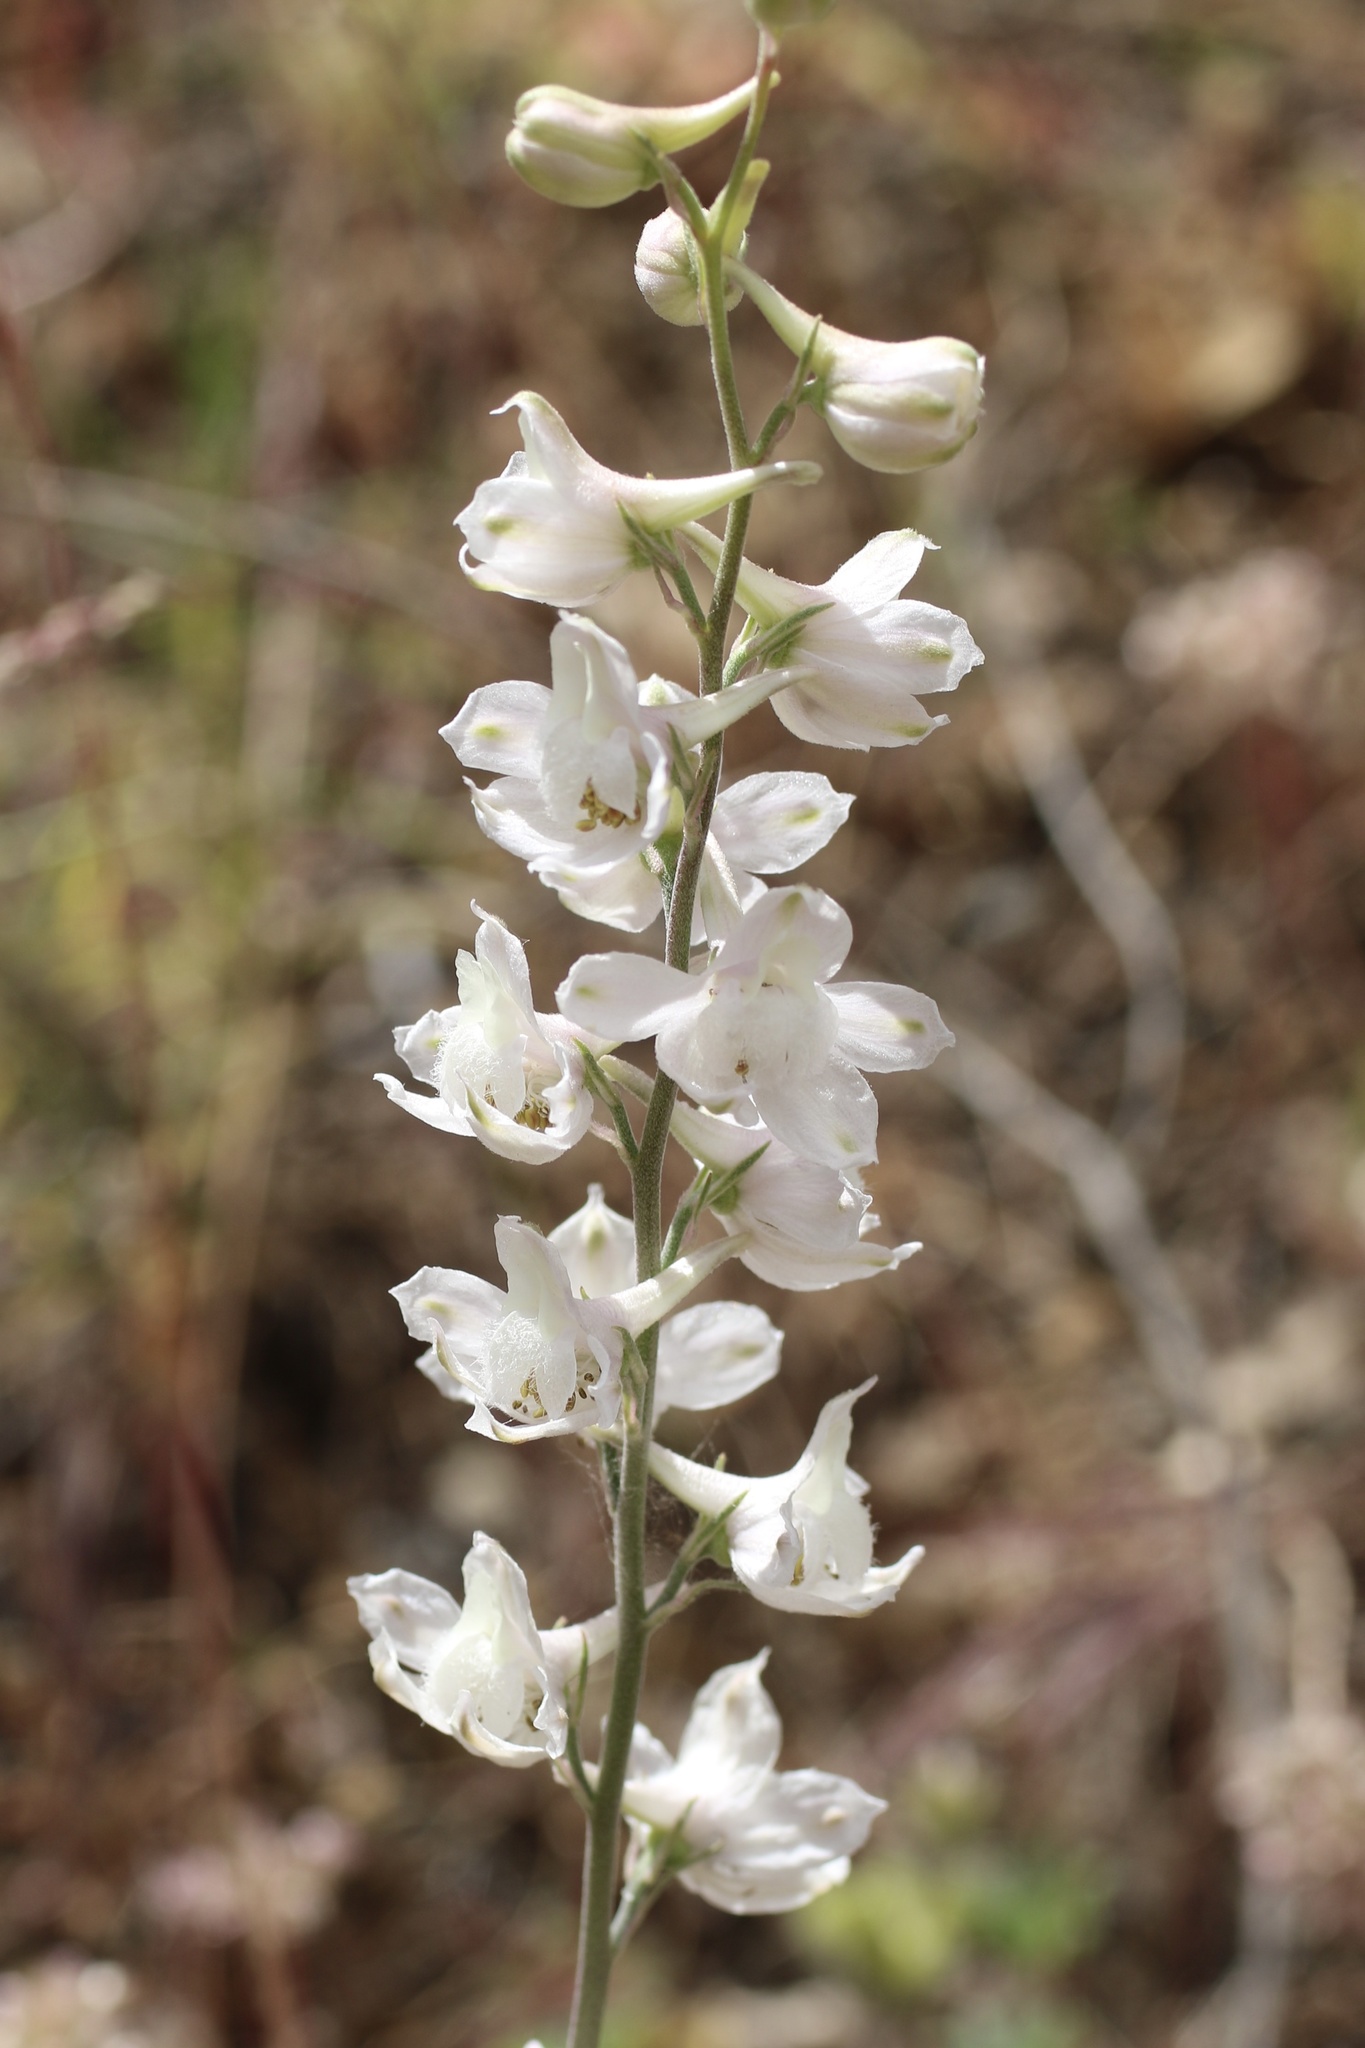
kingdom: Plantae
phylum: Tracheophyta
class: Magnoliopsida
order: Ranunculales
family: Ranunculaceae
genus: Delphinium
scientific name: Delphinium hesperium
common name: Western larkspur
